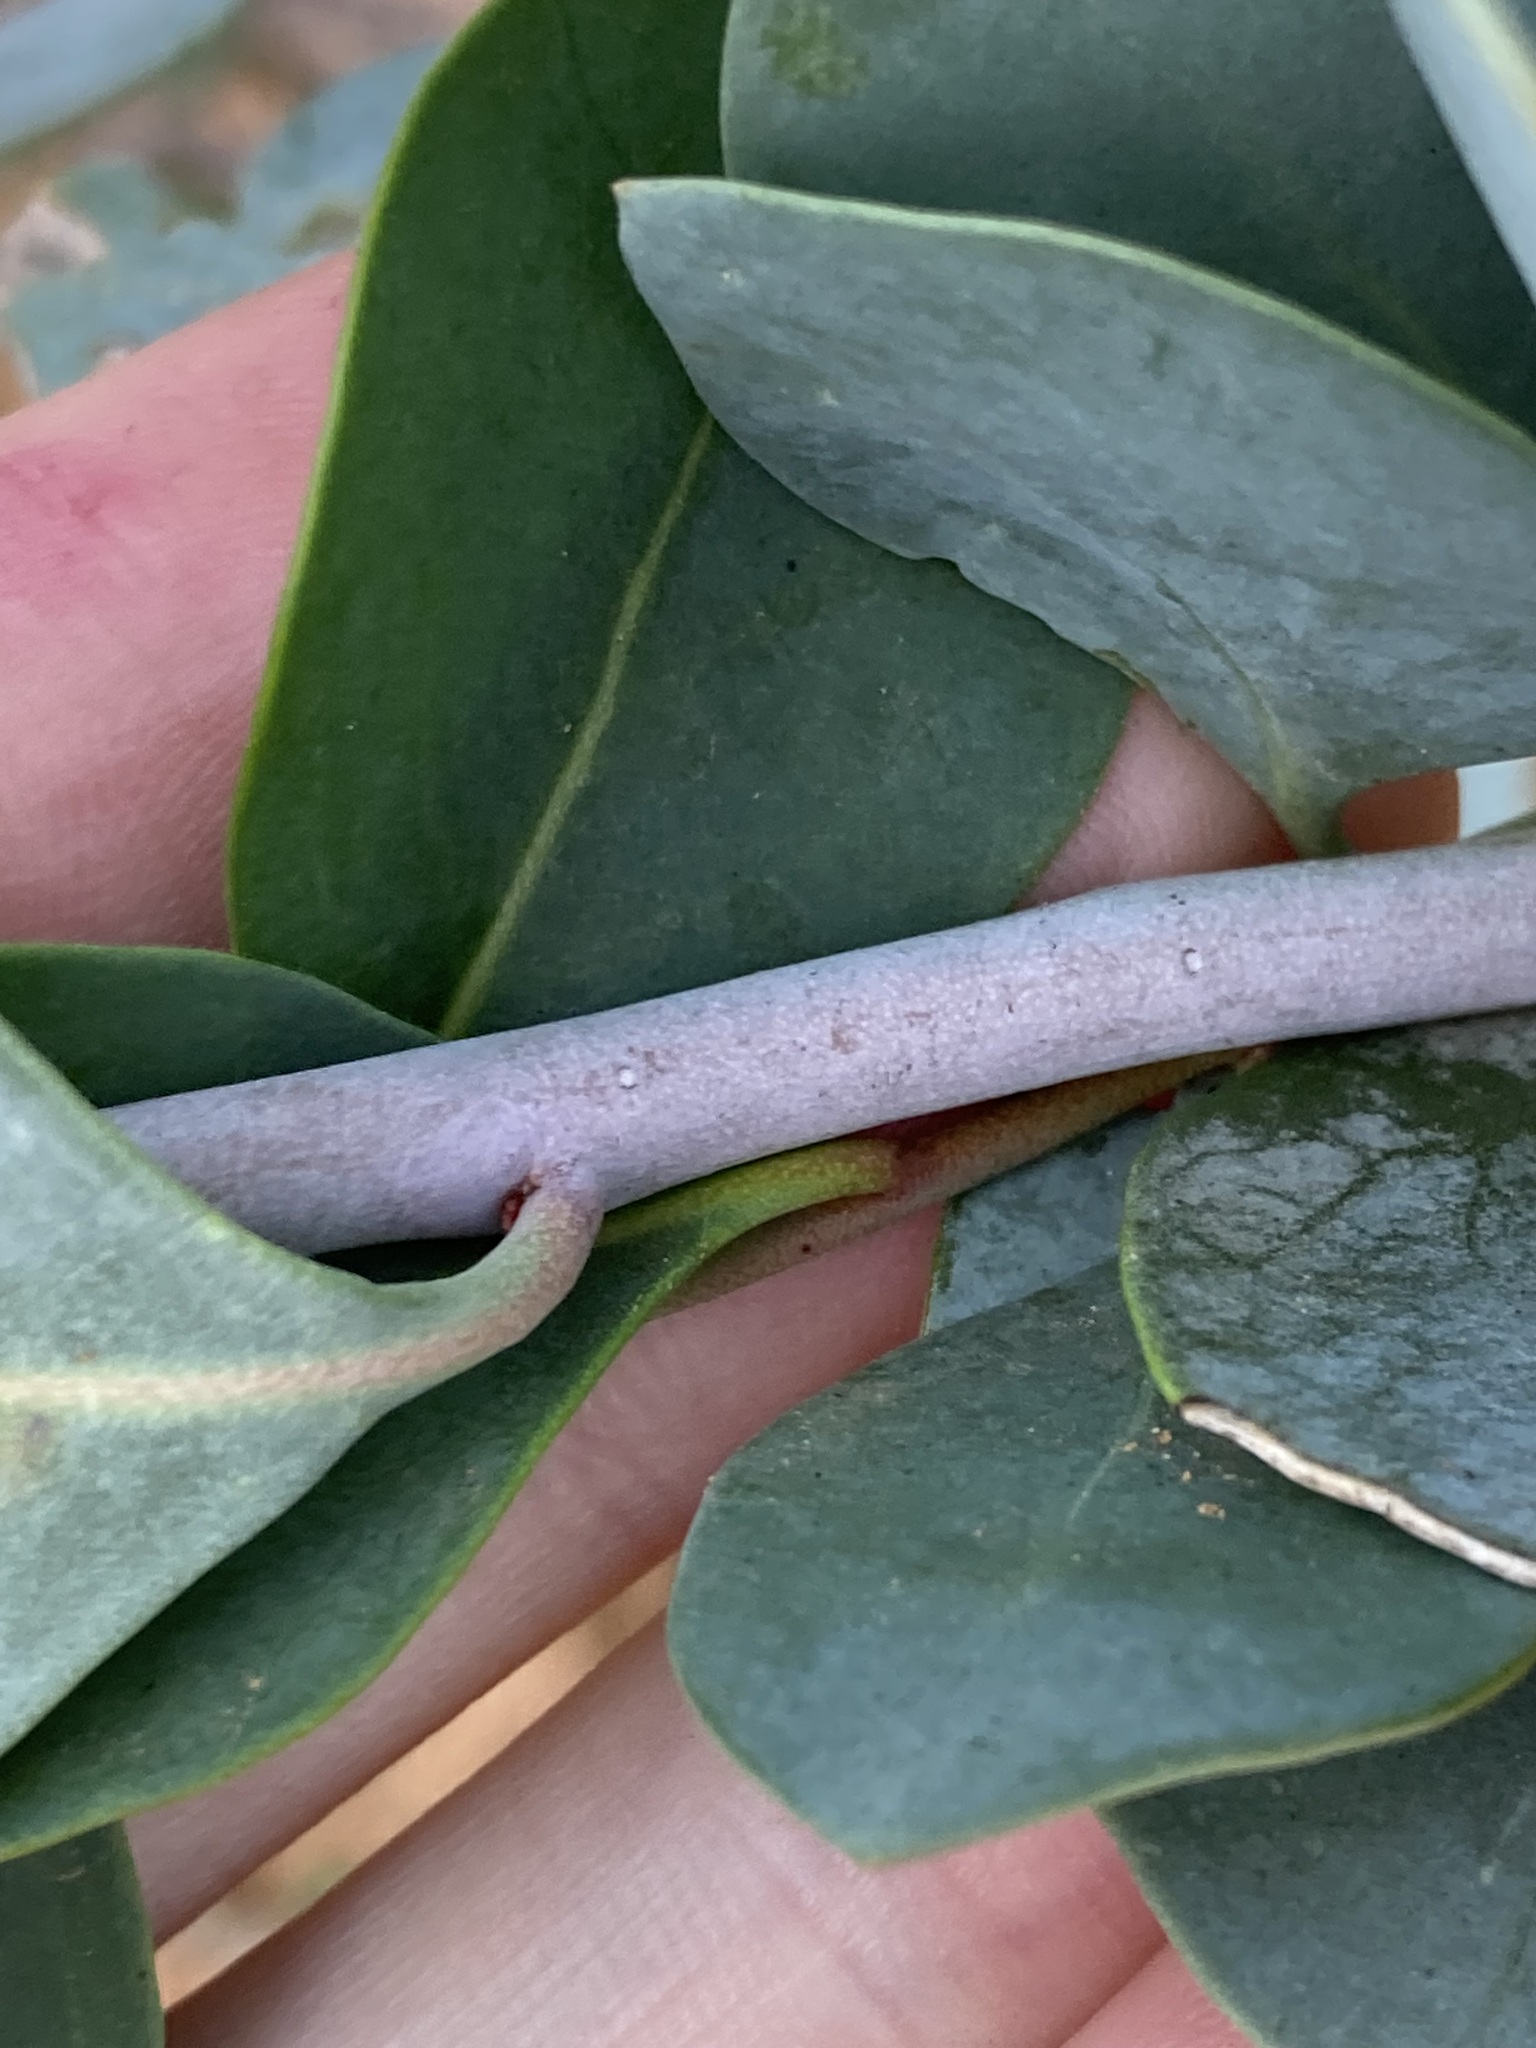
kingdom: Plantae
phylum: Tracheophyta
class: Magnoliopsida
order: Brassicales
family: Gyrostemonaceae
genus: Codonocarpus
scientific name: Codonocarpus cotinifolius
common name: Mustardtree
